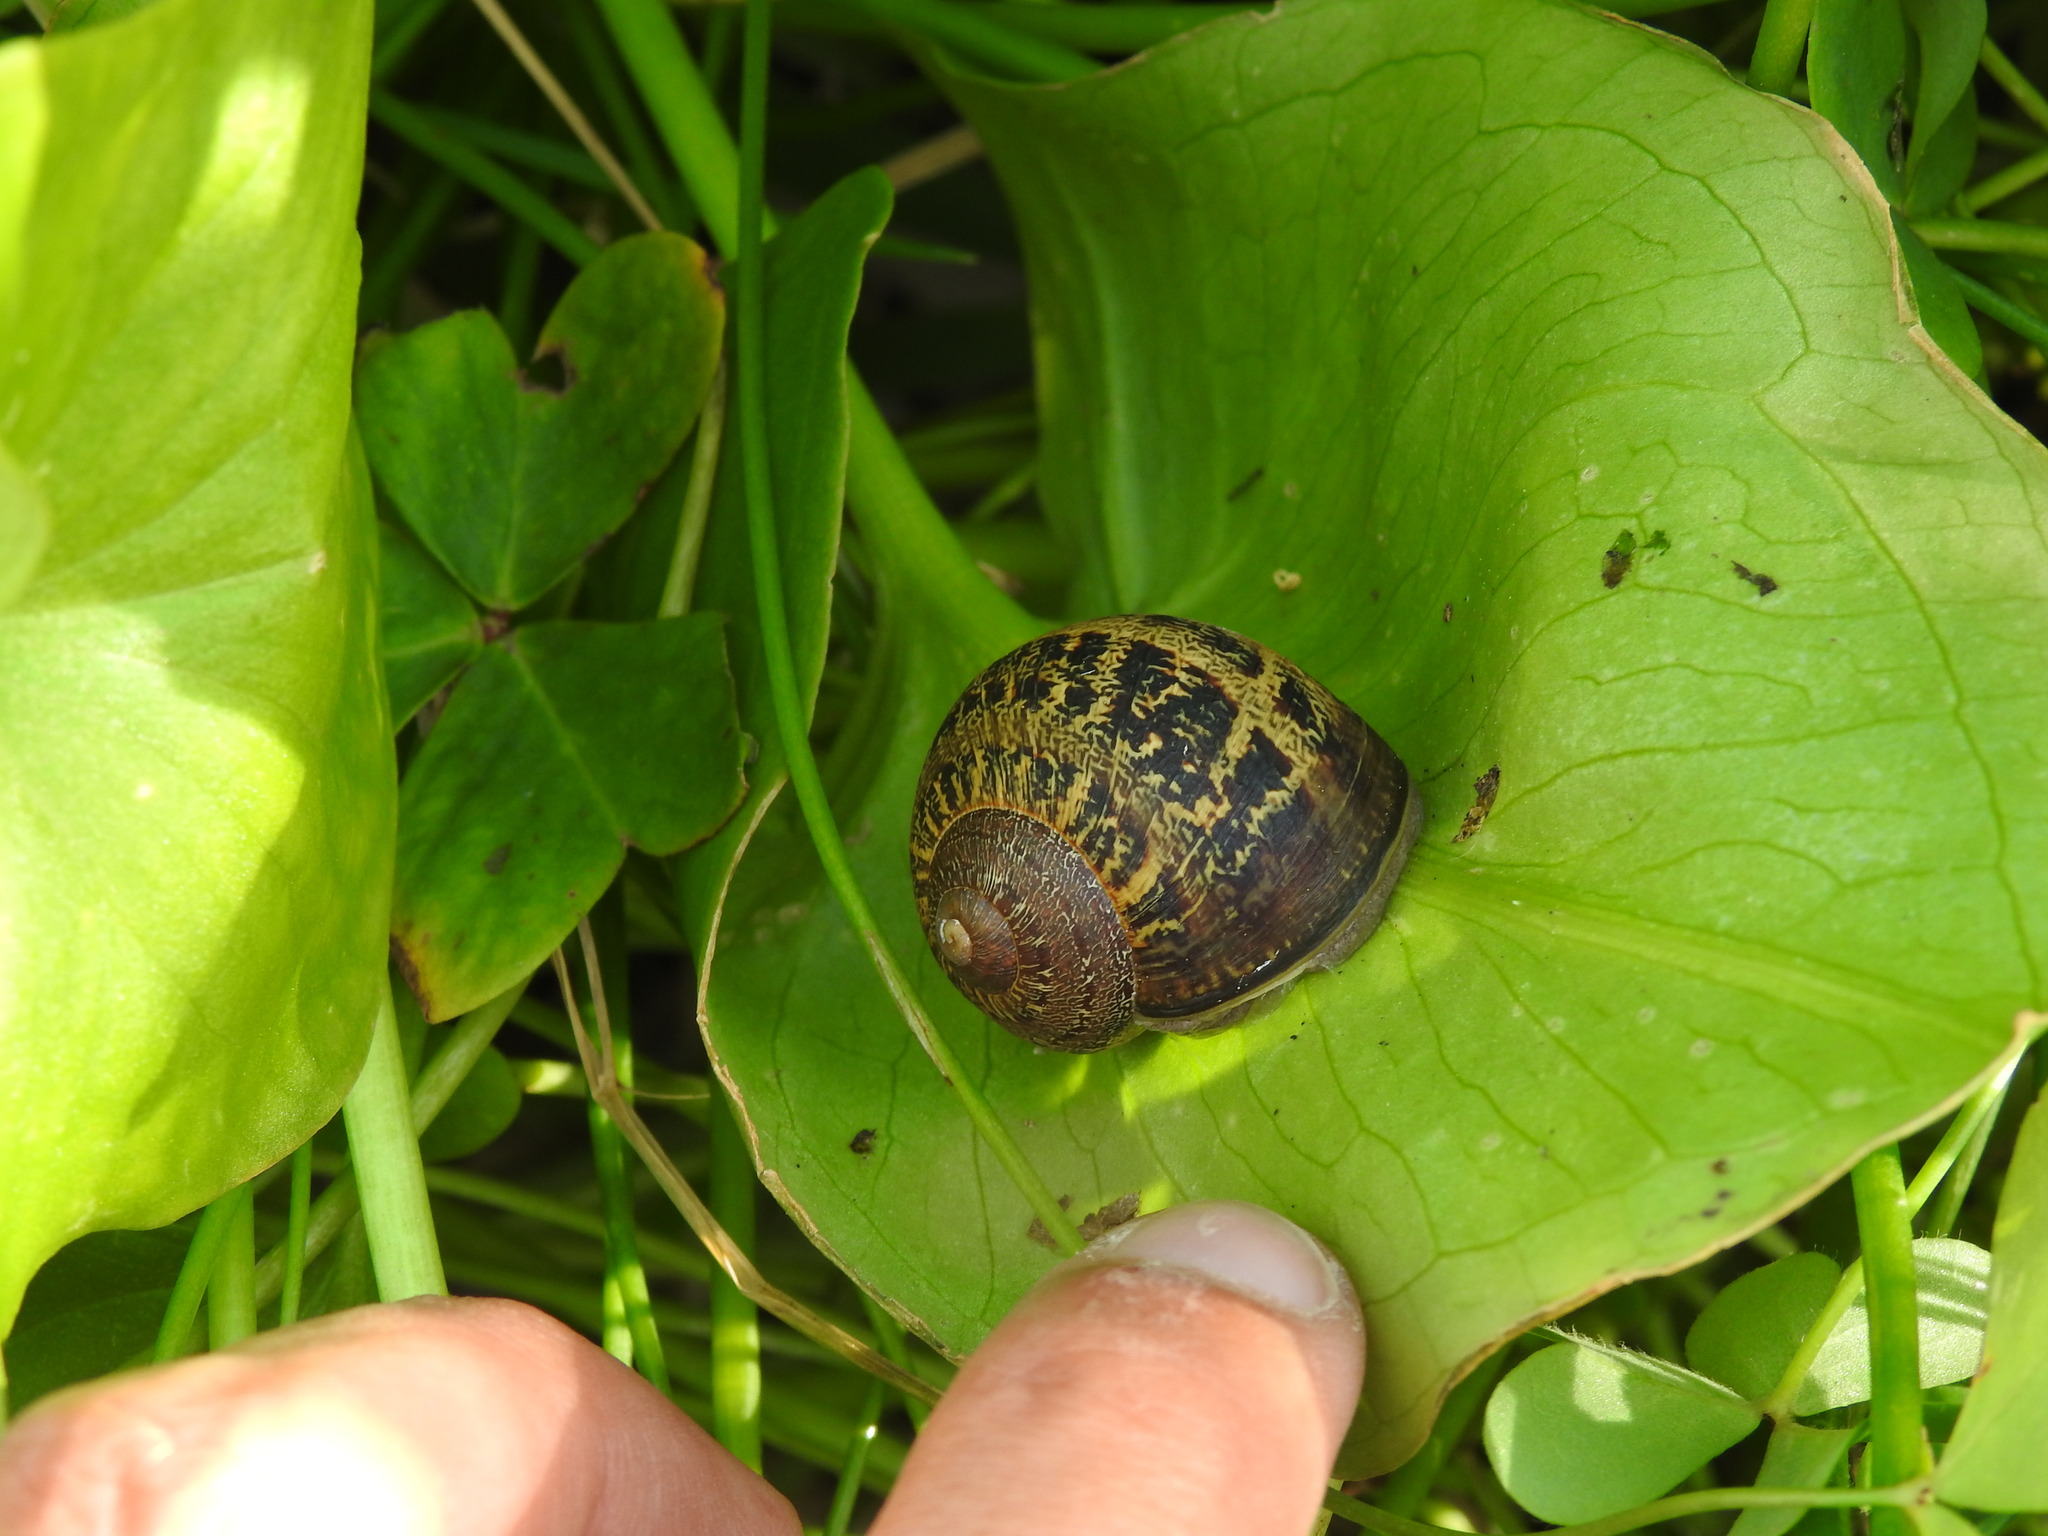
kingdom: Animalia
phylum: Mollusca
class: Gastropoda
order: Stylommatophora
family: Helicidae
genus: Cornu
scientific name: Cornu aspersum
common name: Brown garden snail
